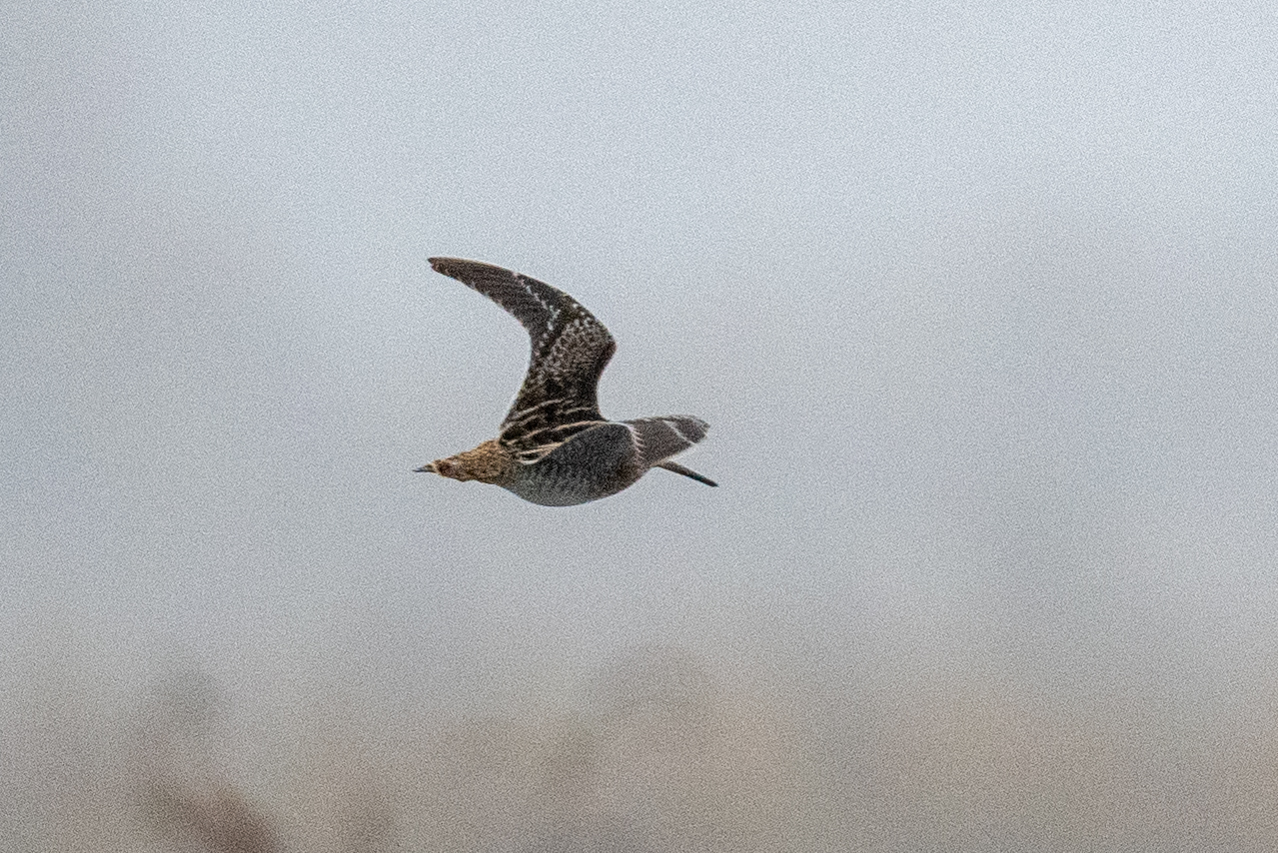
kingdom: Animalia
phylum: Chordata
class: Aves
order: Charadriiformes
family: Scolopacidae
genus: Gallinago
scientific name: Gallinago delicata
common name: Wilson's snipe
